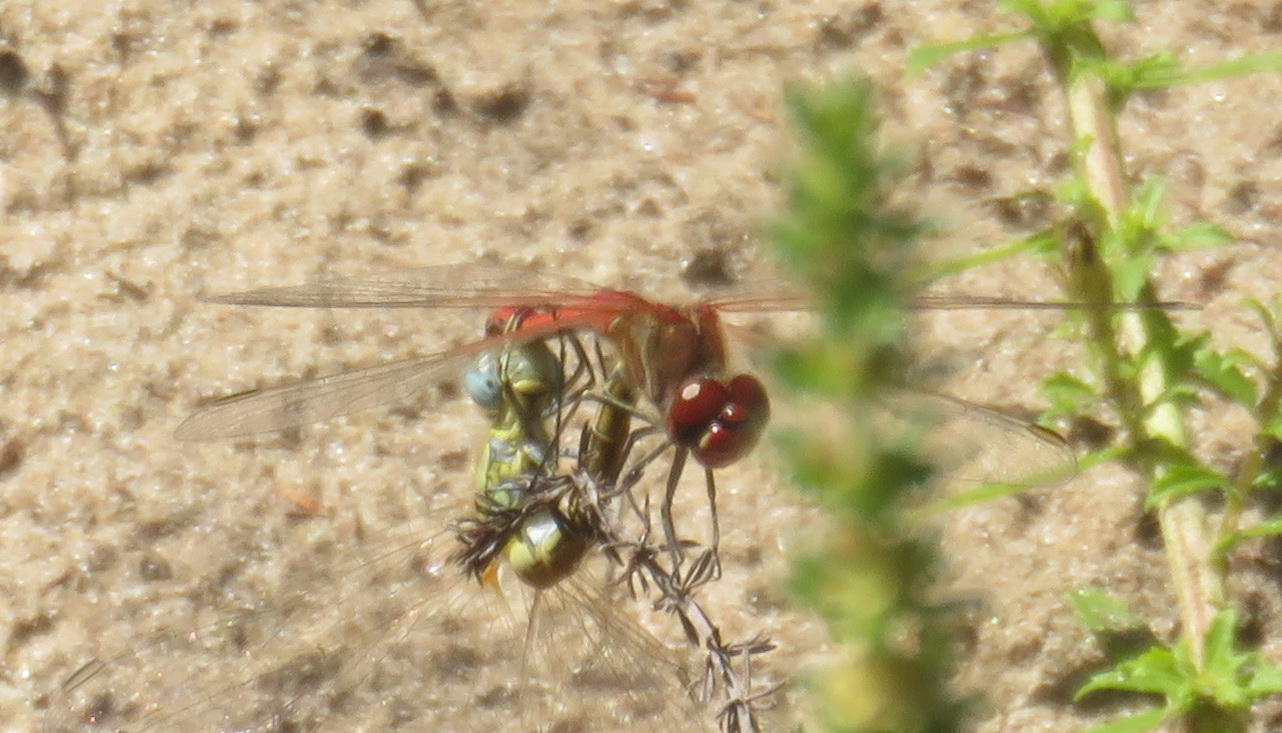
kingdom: Animalia
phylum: Arthropoda
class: Insecta
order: Odonata
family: Libellulidae
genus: Sympetrum
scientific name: Sympetrum fonscolombii
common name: Red-veined darter
